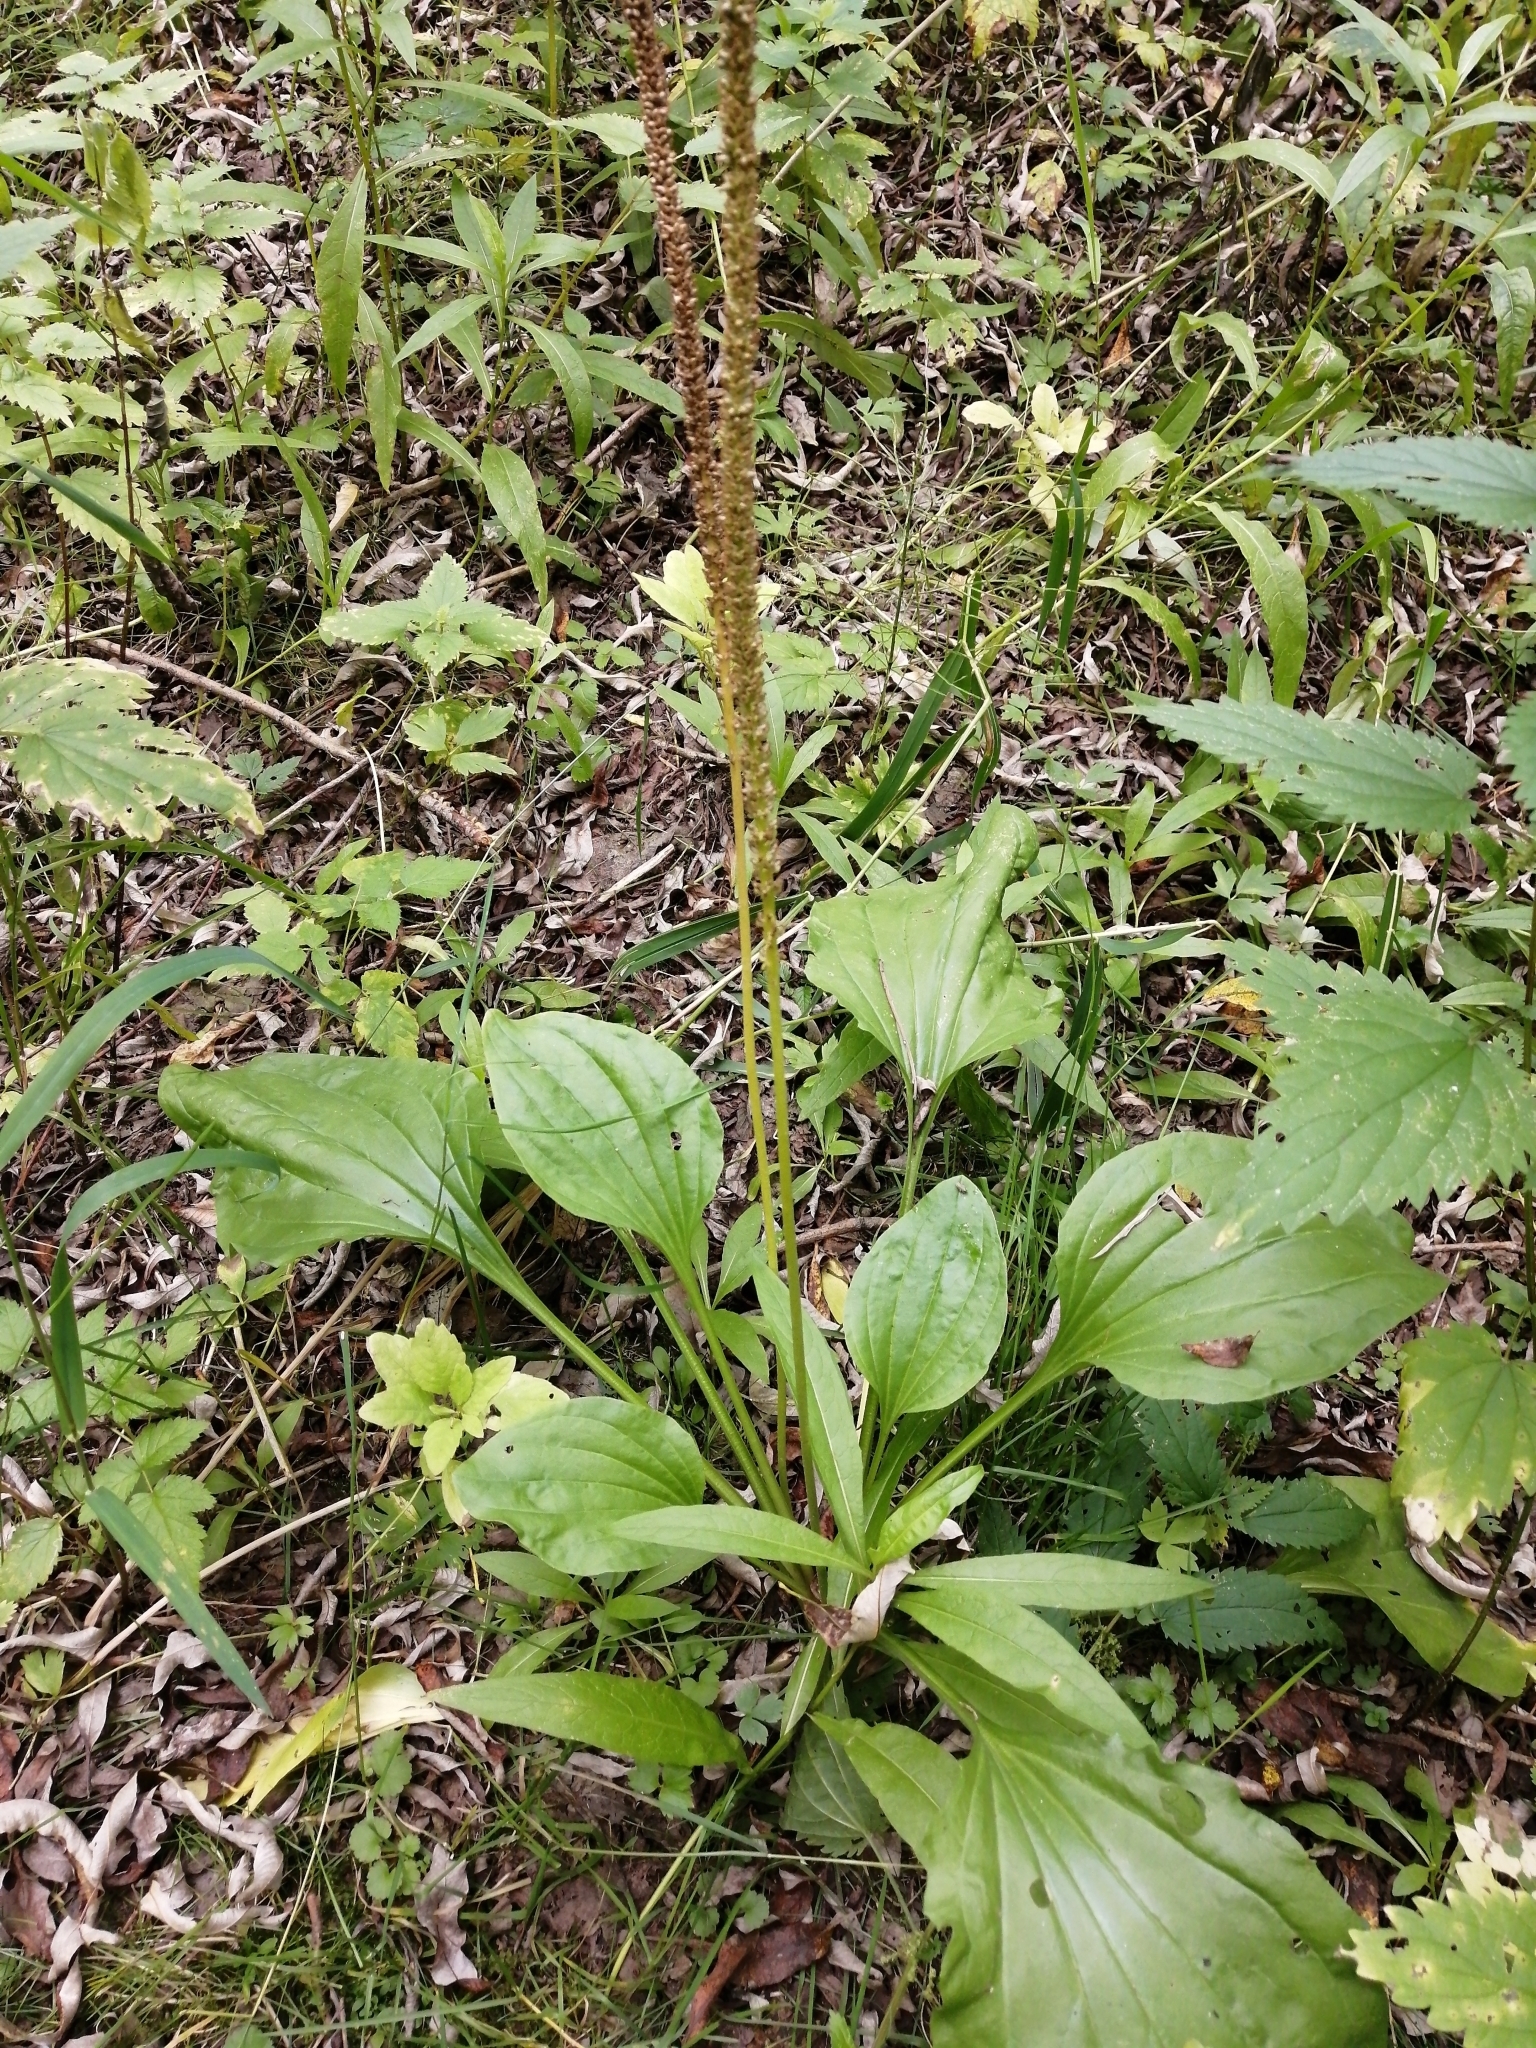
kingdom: Plantae
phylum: Tracheophyta
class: Magnoliopsida
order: Lamiales
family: Plantaginaceae
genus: Plantago
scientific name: Plantago major
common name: Common plantain
